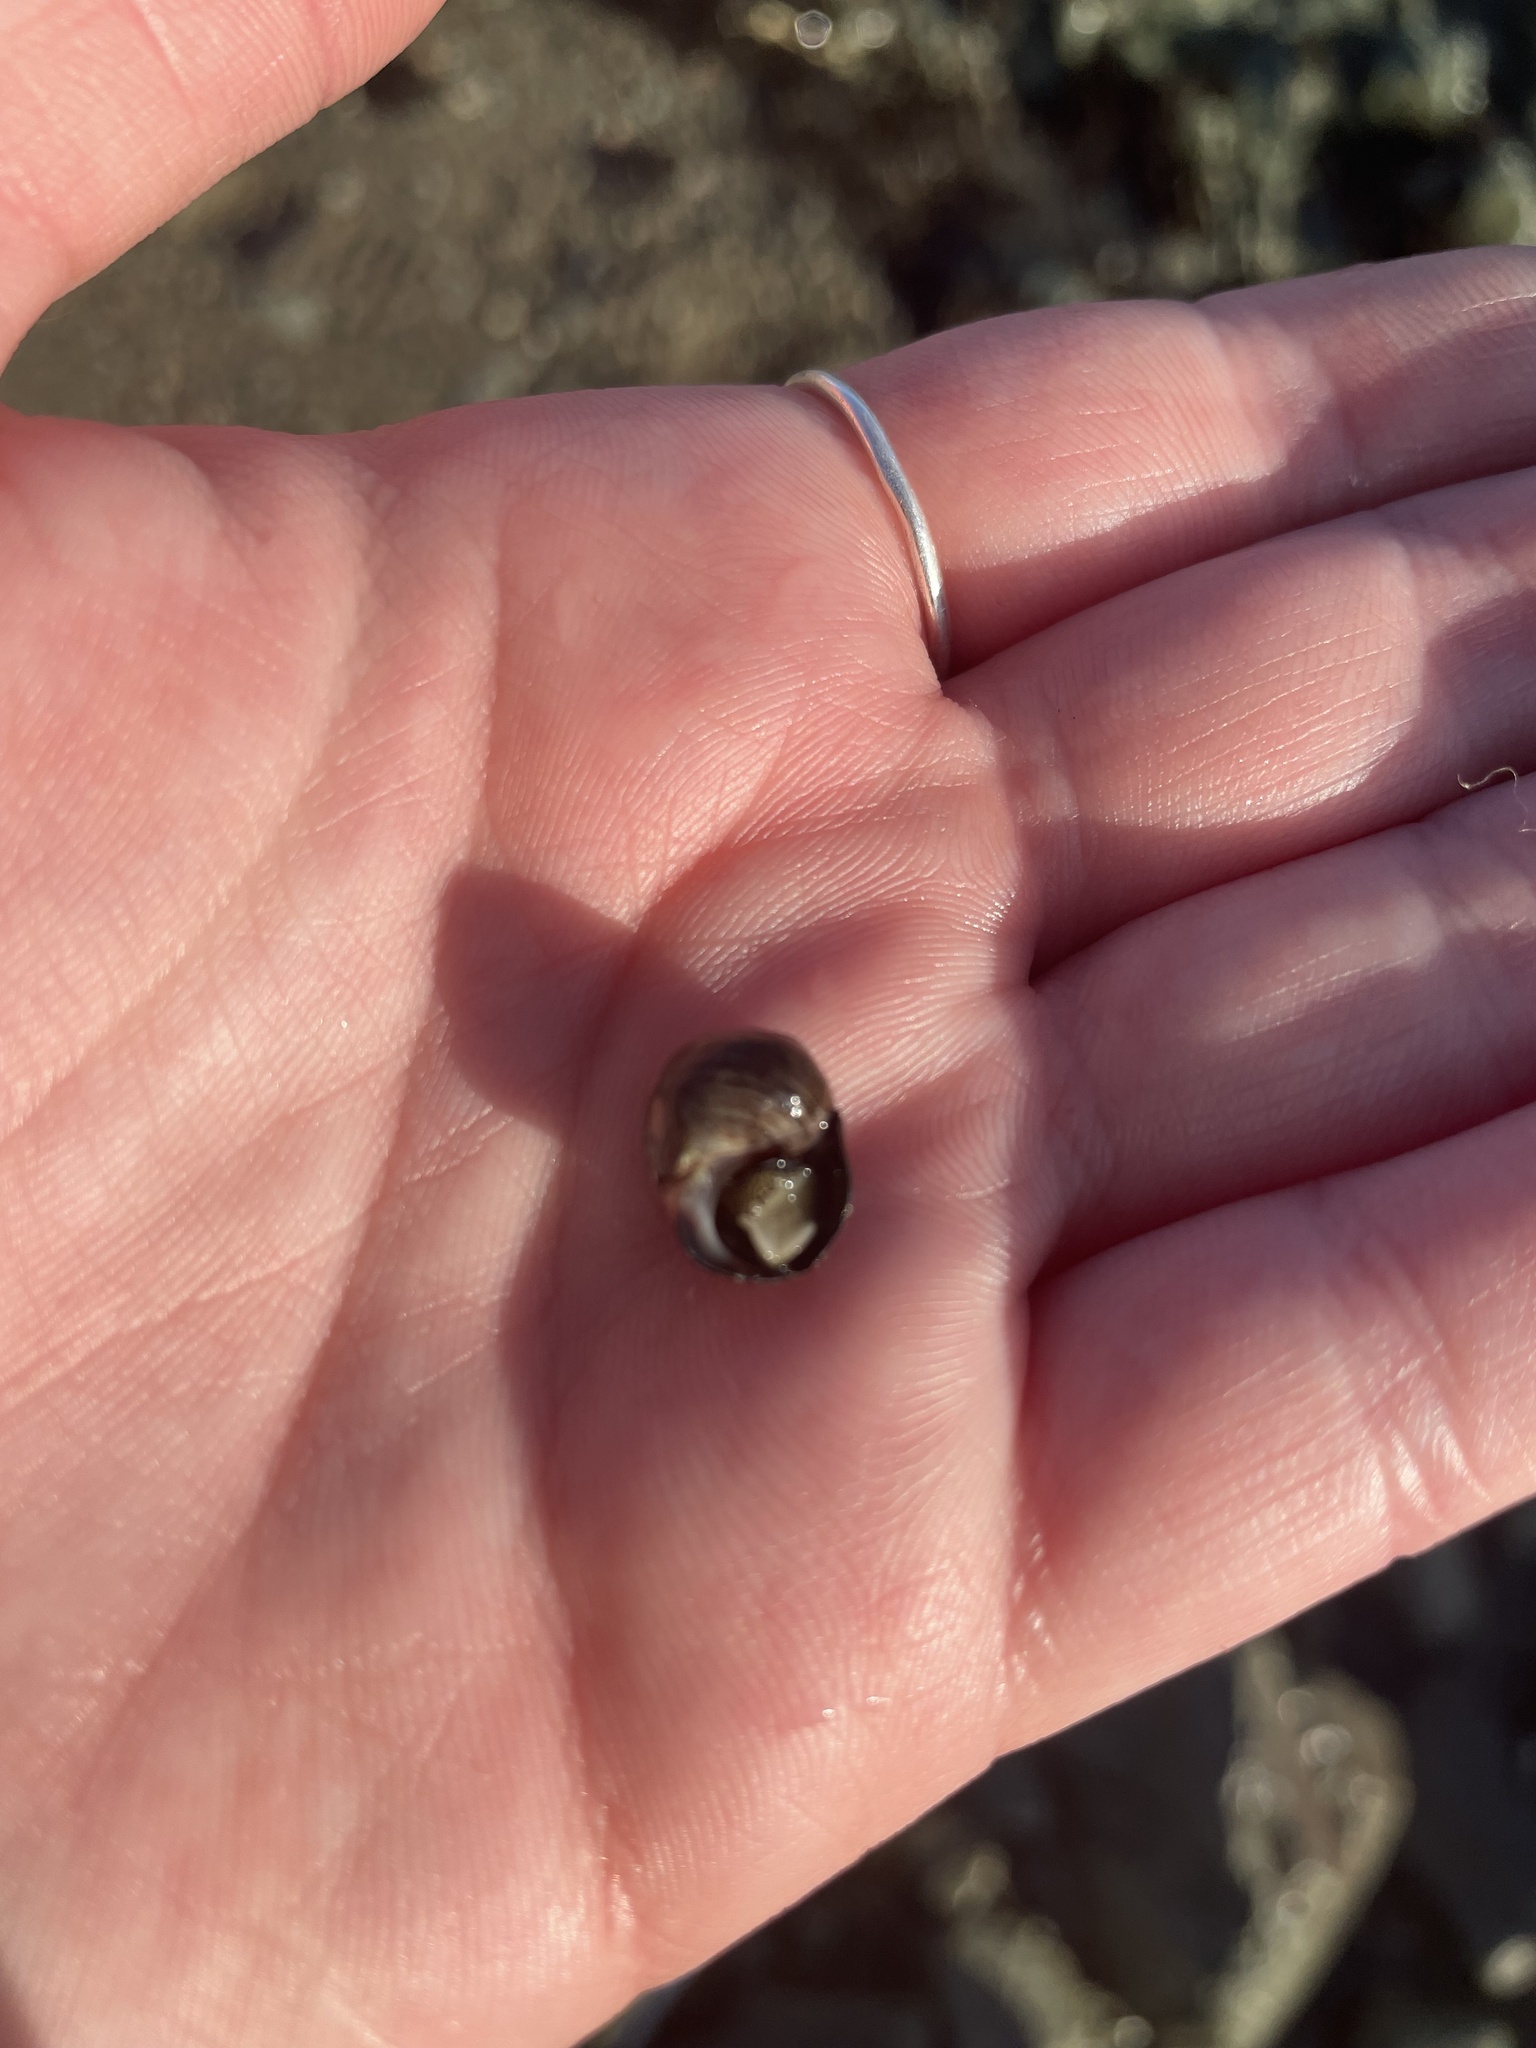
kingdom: Animalia
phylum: Mollusca
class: Gastropoda
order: Littorinimorpha
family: Littorinidae
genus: Littorina
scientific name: Littorina littorea
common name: Common periwinkle
